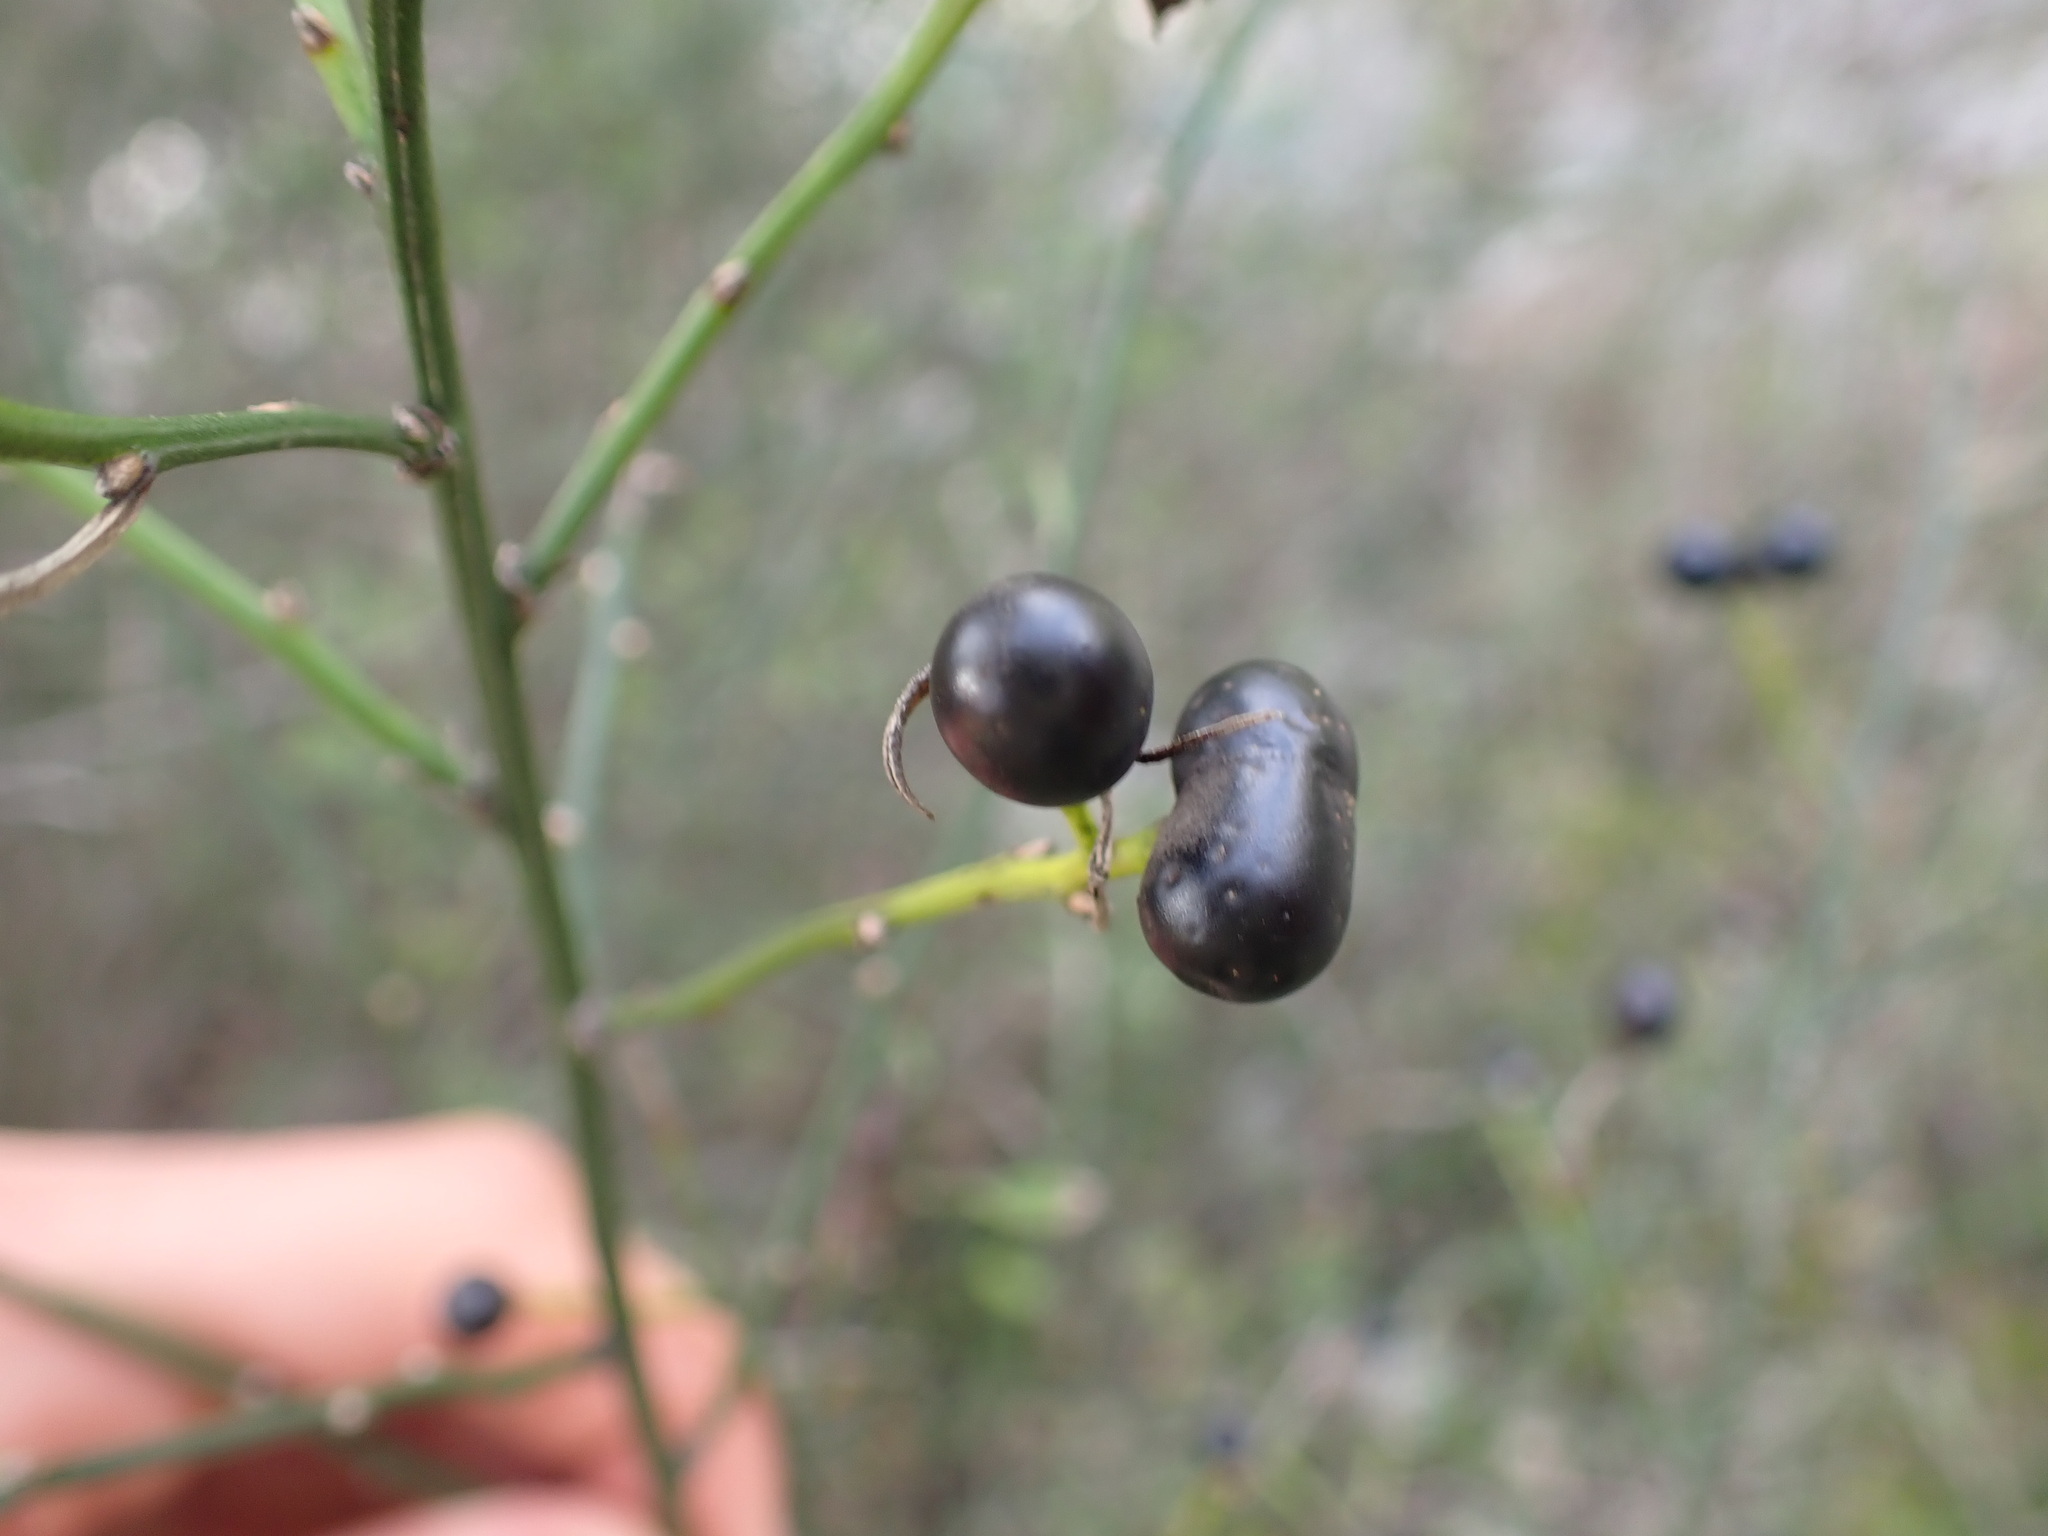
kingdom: Plantae
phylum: Tracheophyta
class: Magnoliopsida
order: Lamiales
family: Oleaceae
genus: Chrysojasminum
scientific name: Chrysojasminum fruticans
